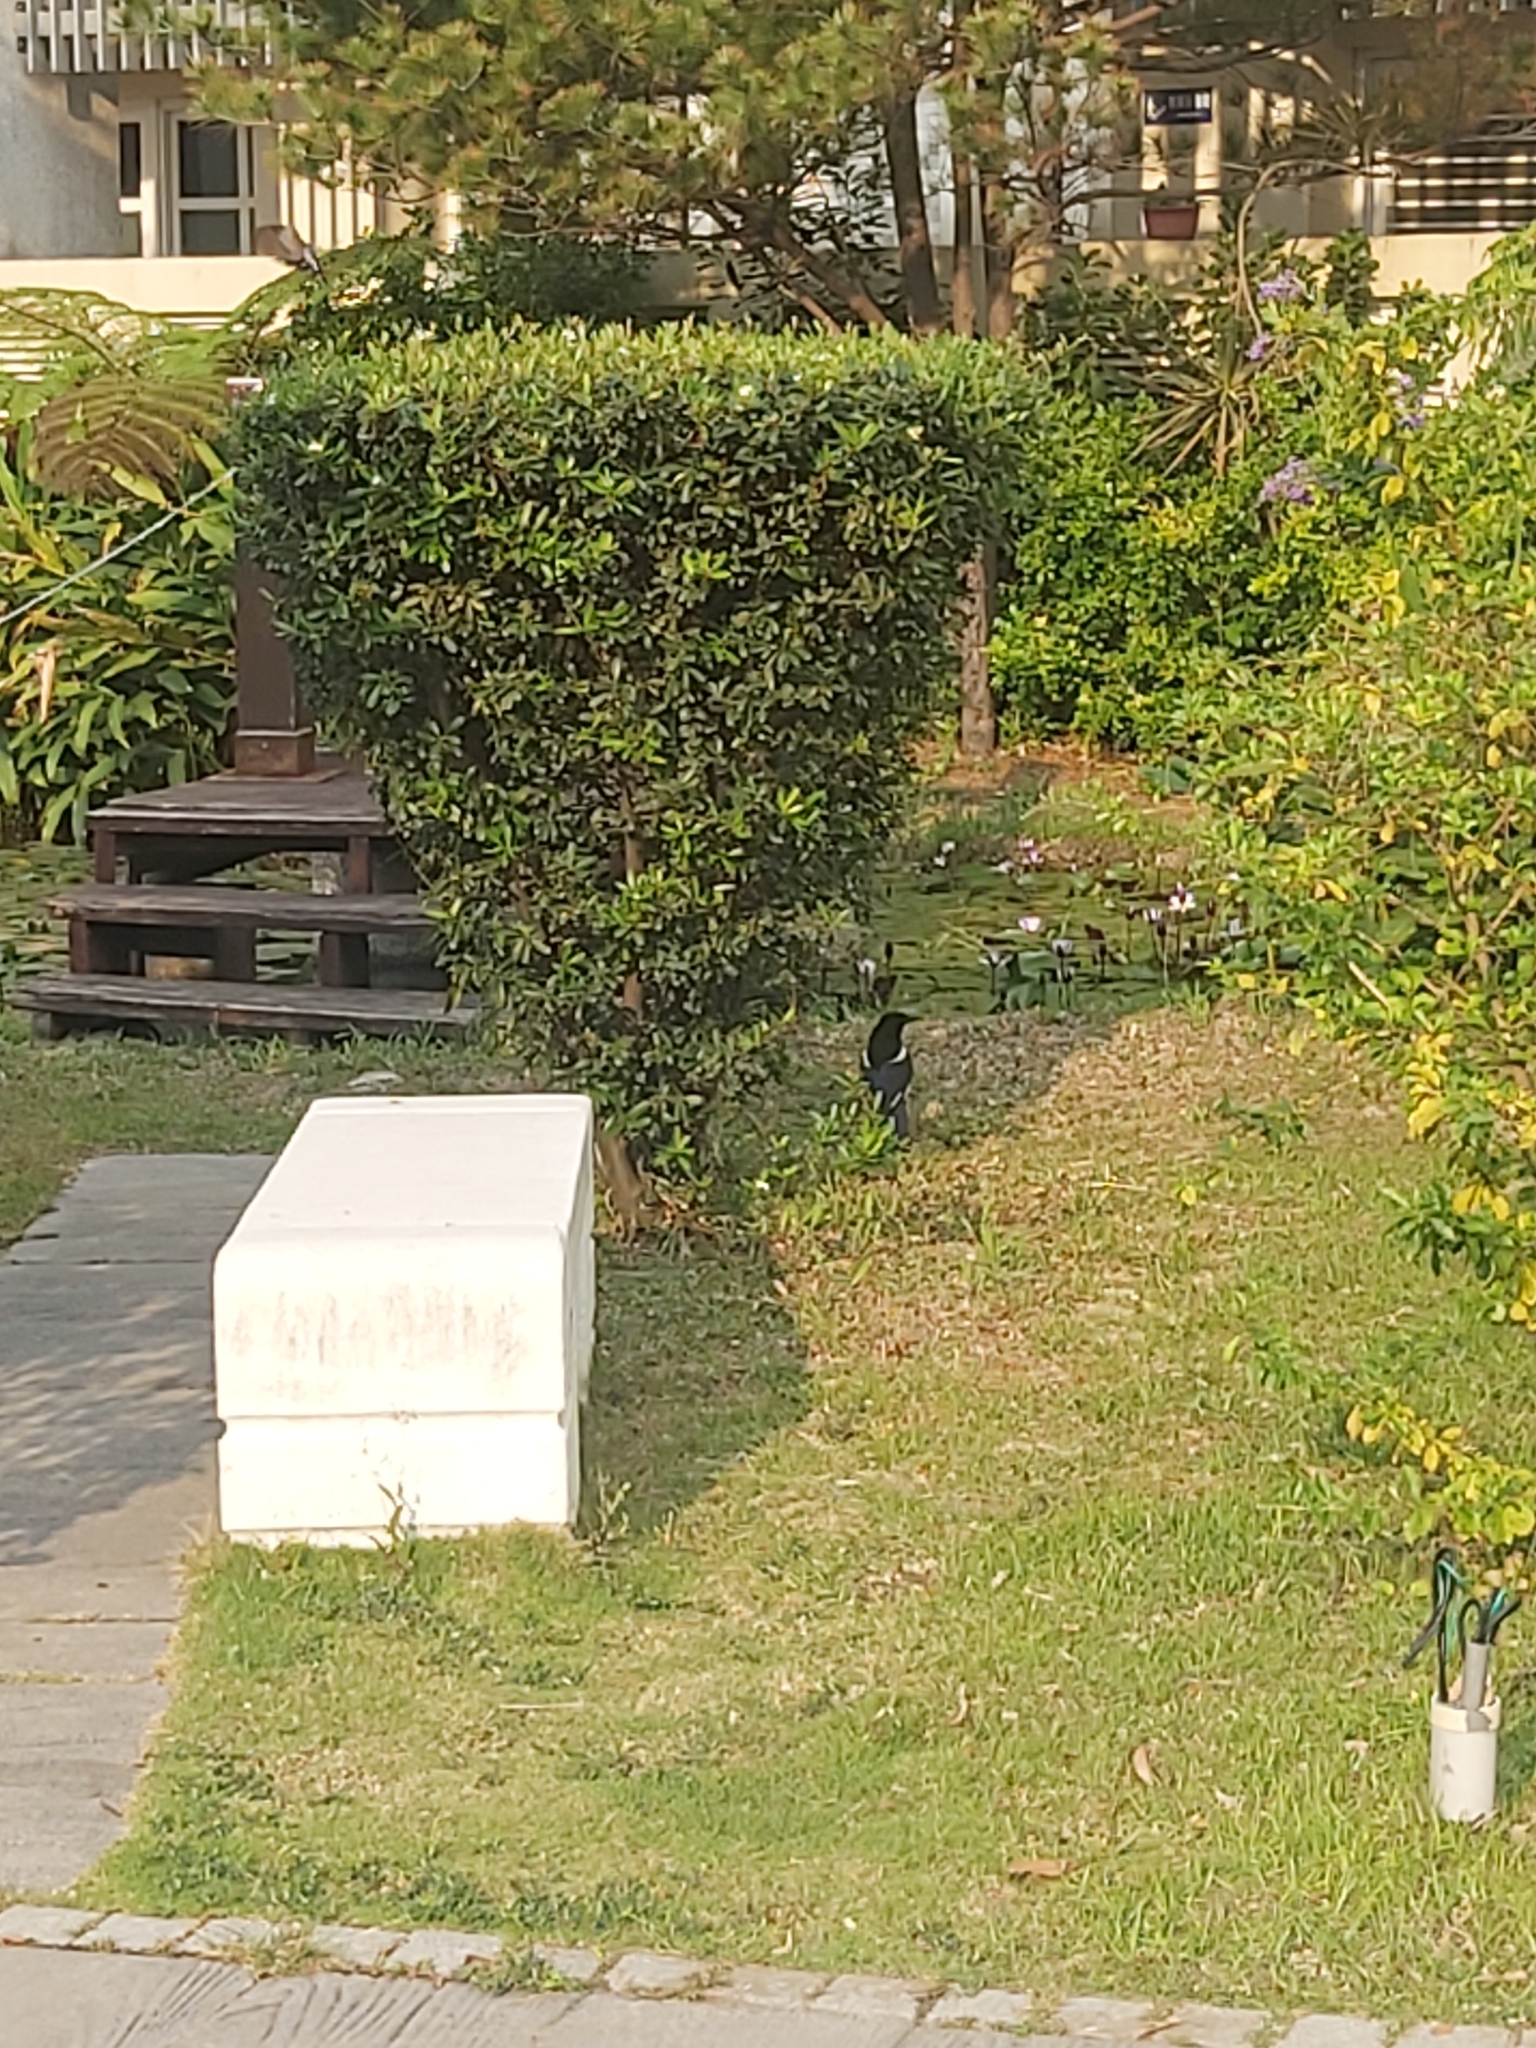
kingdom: Animalia
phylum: Chordata
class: Aves
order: Passeriformes
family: Corvidae
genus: Pica
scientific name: Pica serica
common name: Oriental magpie
